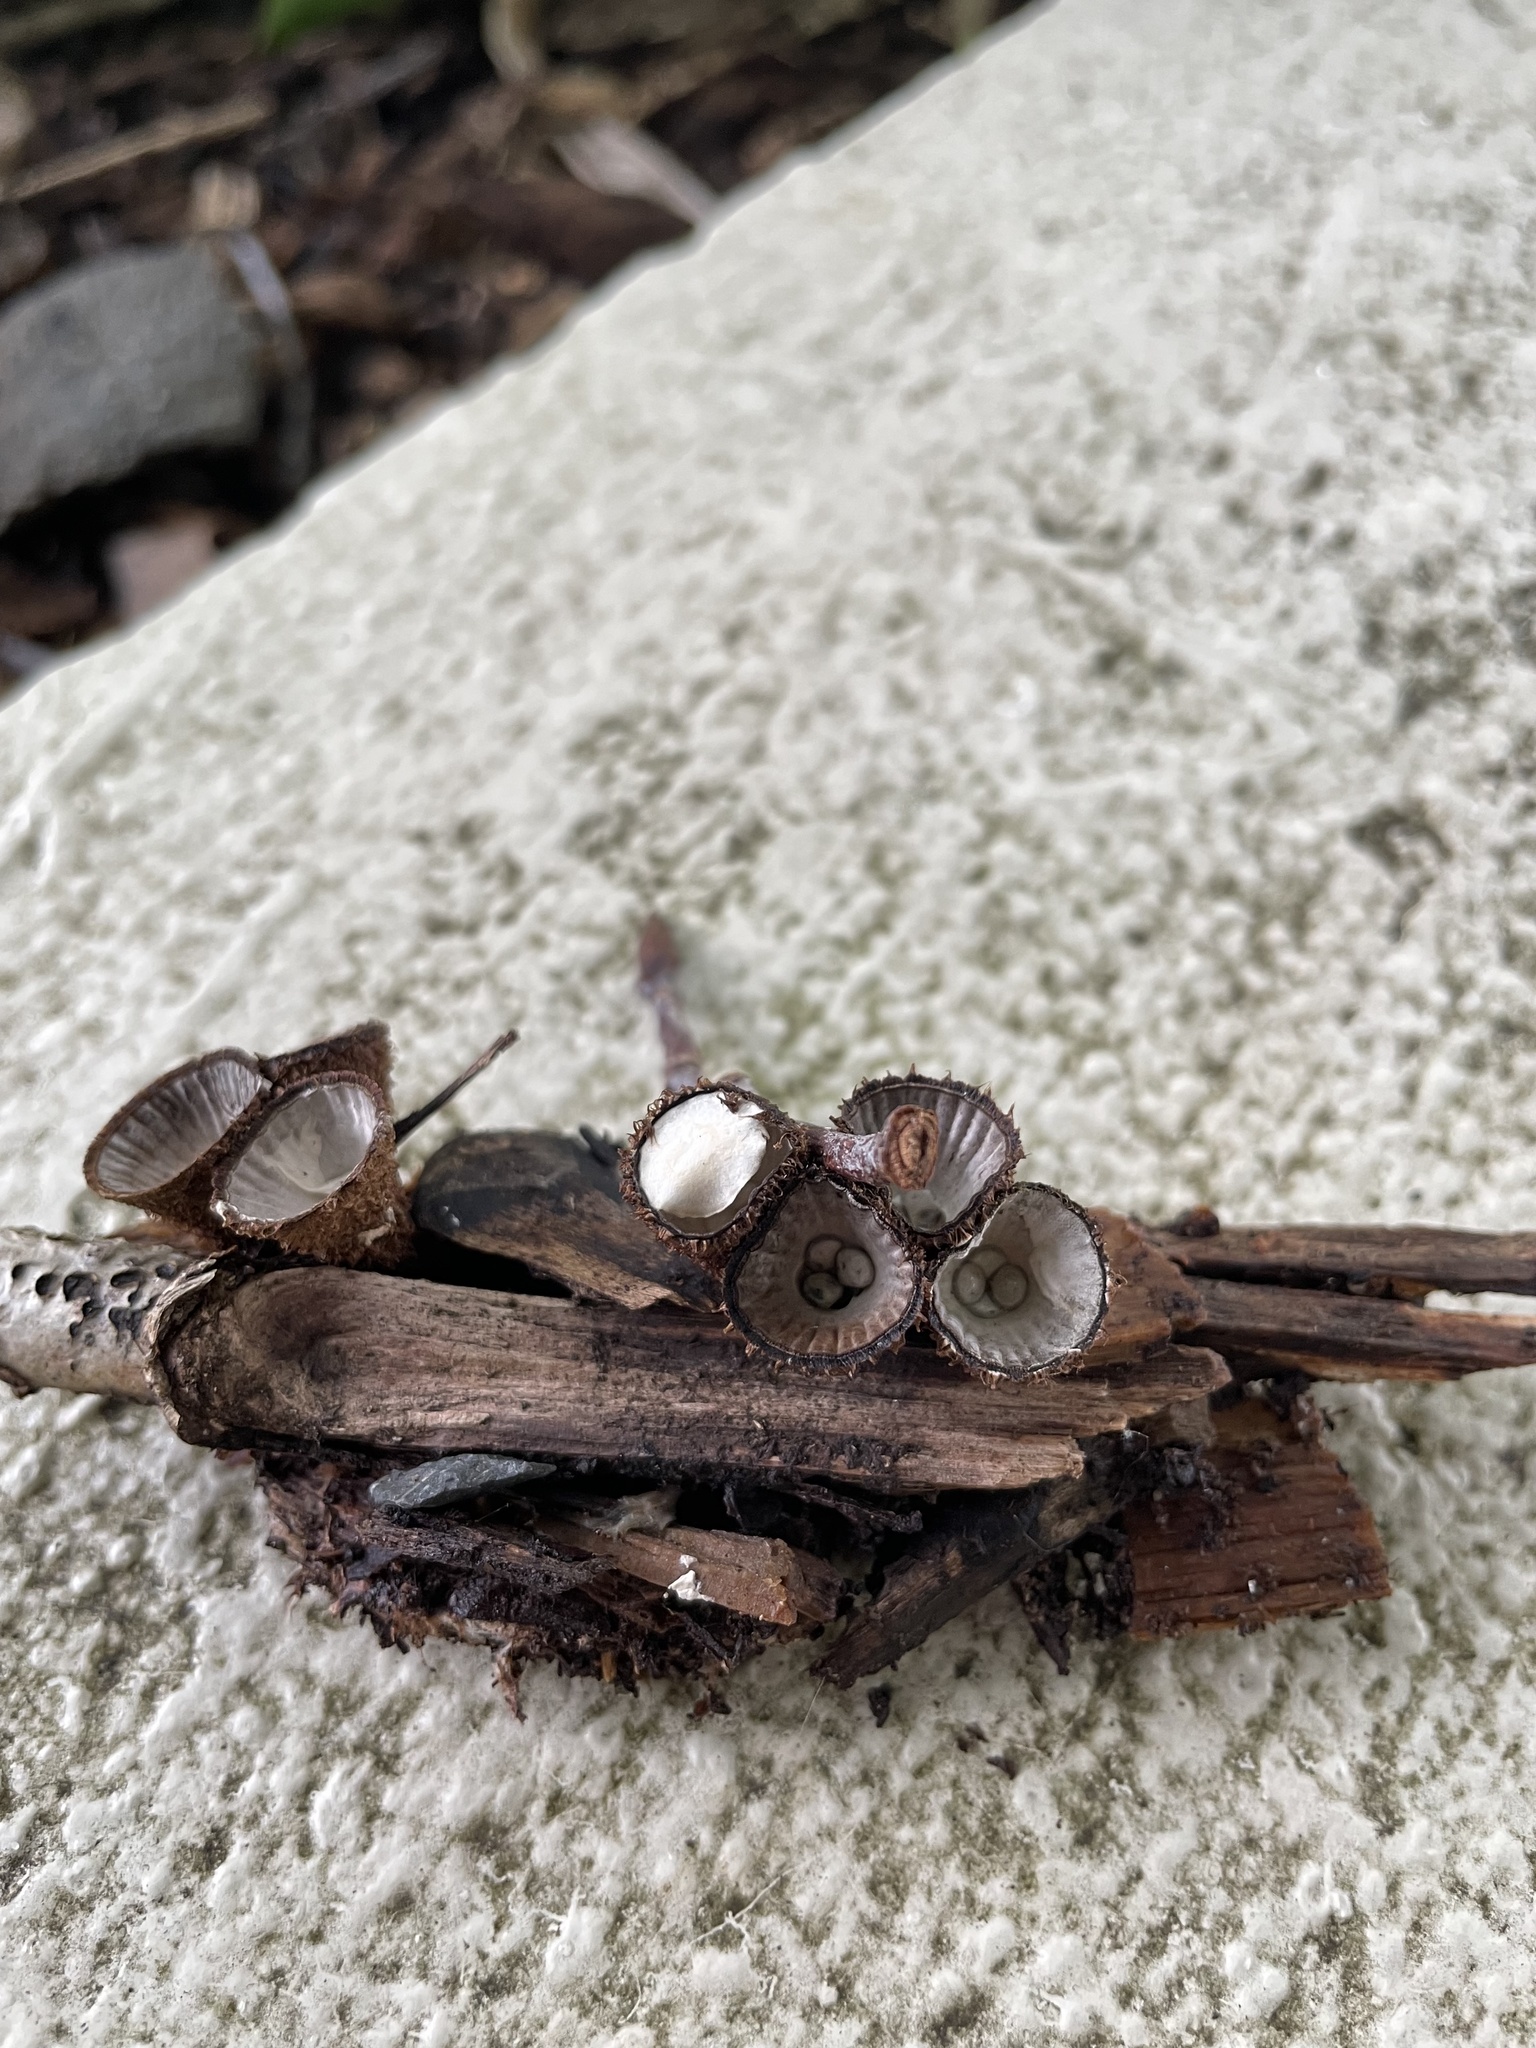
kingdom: Fungi
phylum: Basidiomycota
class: Agaricomycetes
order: Agaricales
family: Agaricaceae
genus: Cyathus
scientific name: Cyathus striatus
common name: Fluted bird's nest
